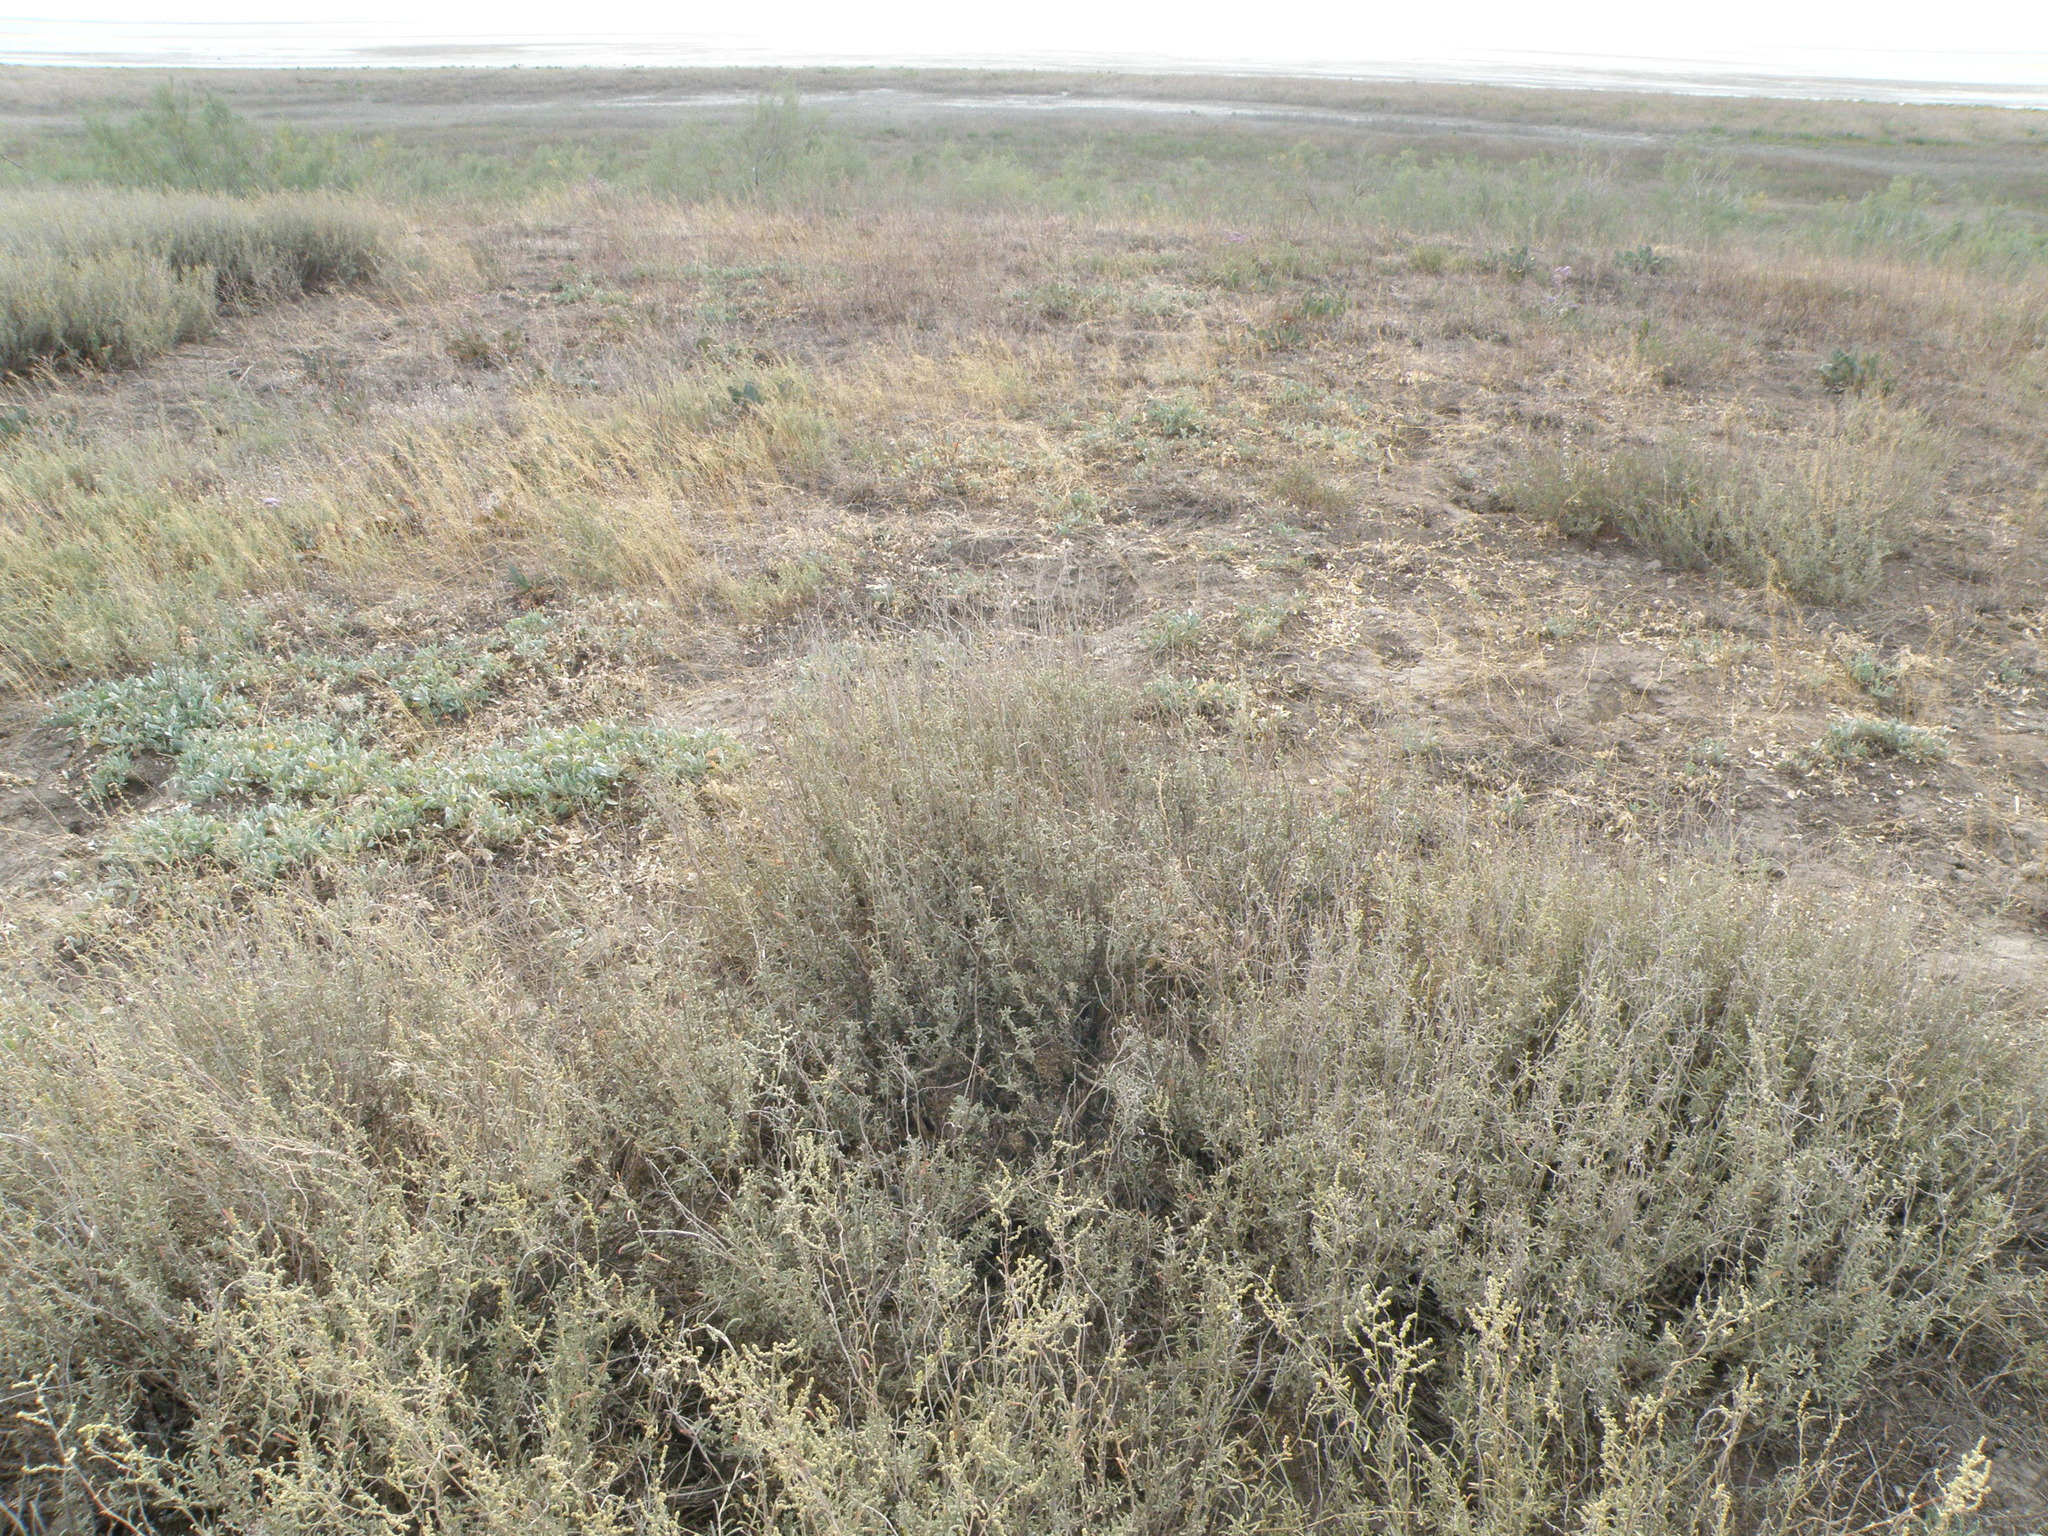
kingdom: Plantae
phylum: Tracheophyta
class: Magnoliopsida
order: Caryophyllales
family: Amaranthaceae
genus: Atriplex
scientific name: Atriplex cana
